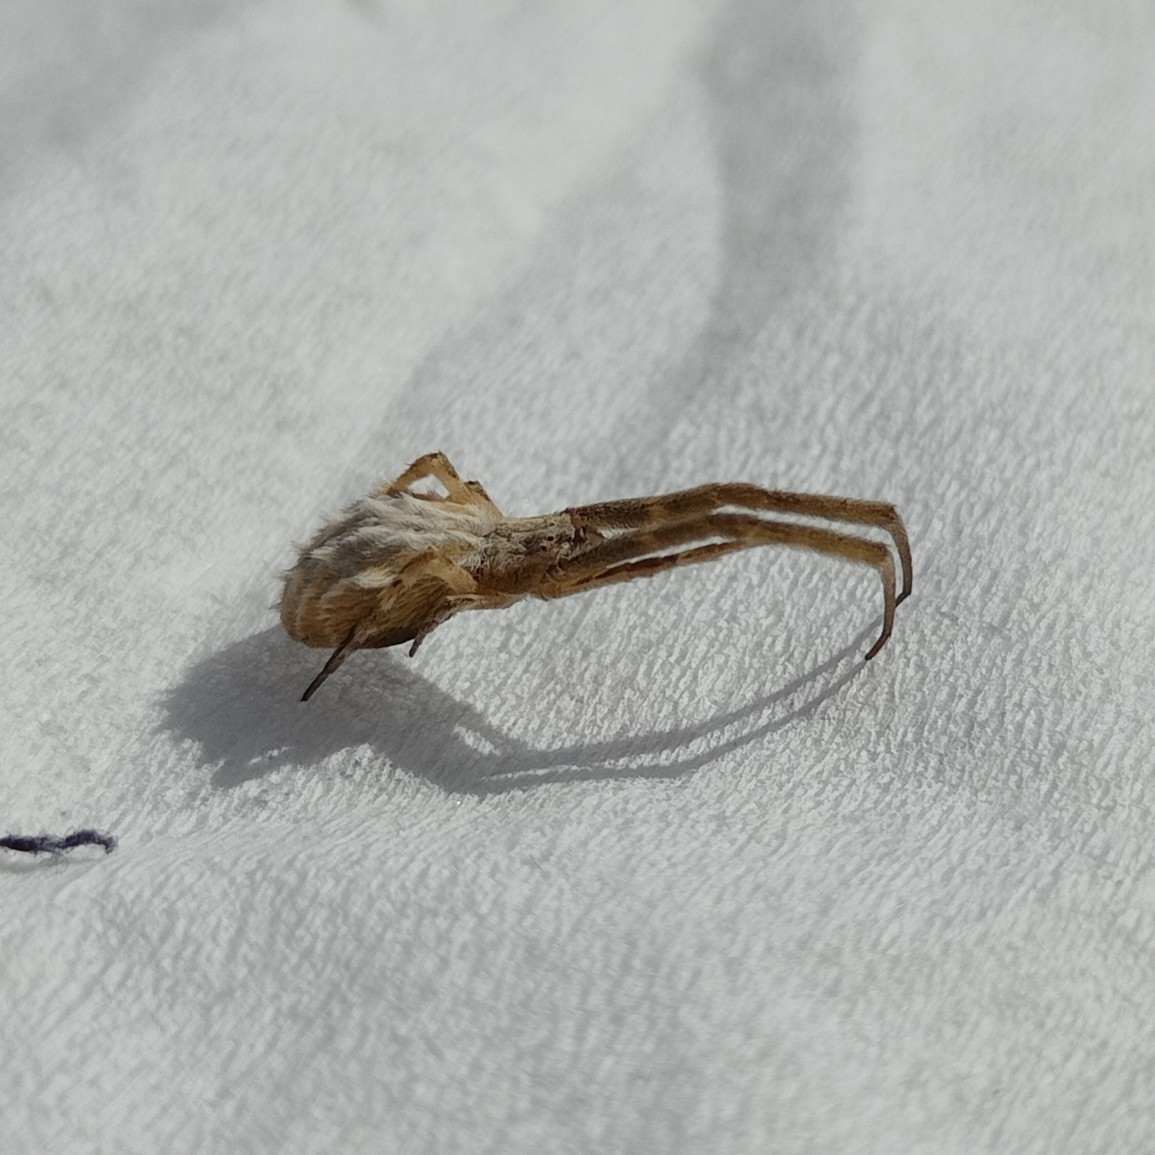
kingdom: Animalia
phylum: Arthropoda
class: Arachnida
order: Araneae
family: Uloboridae
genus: Uloborus
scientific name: Uloborus walckenaerius
